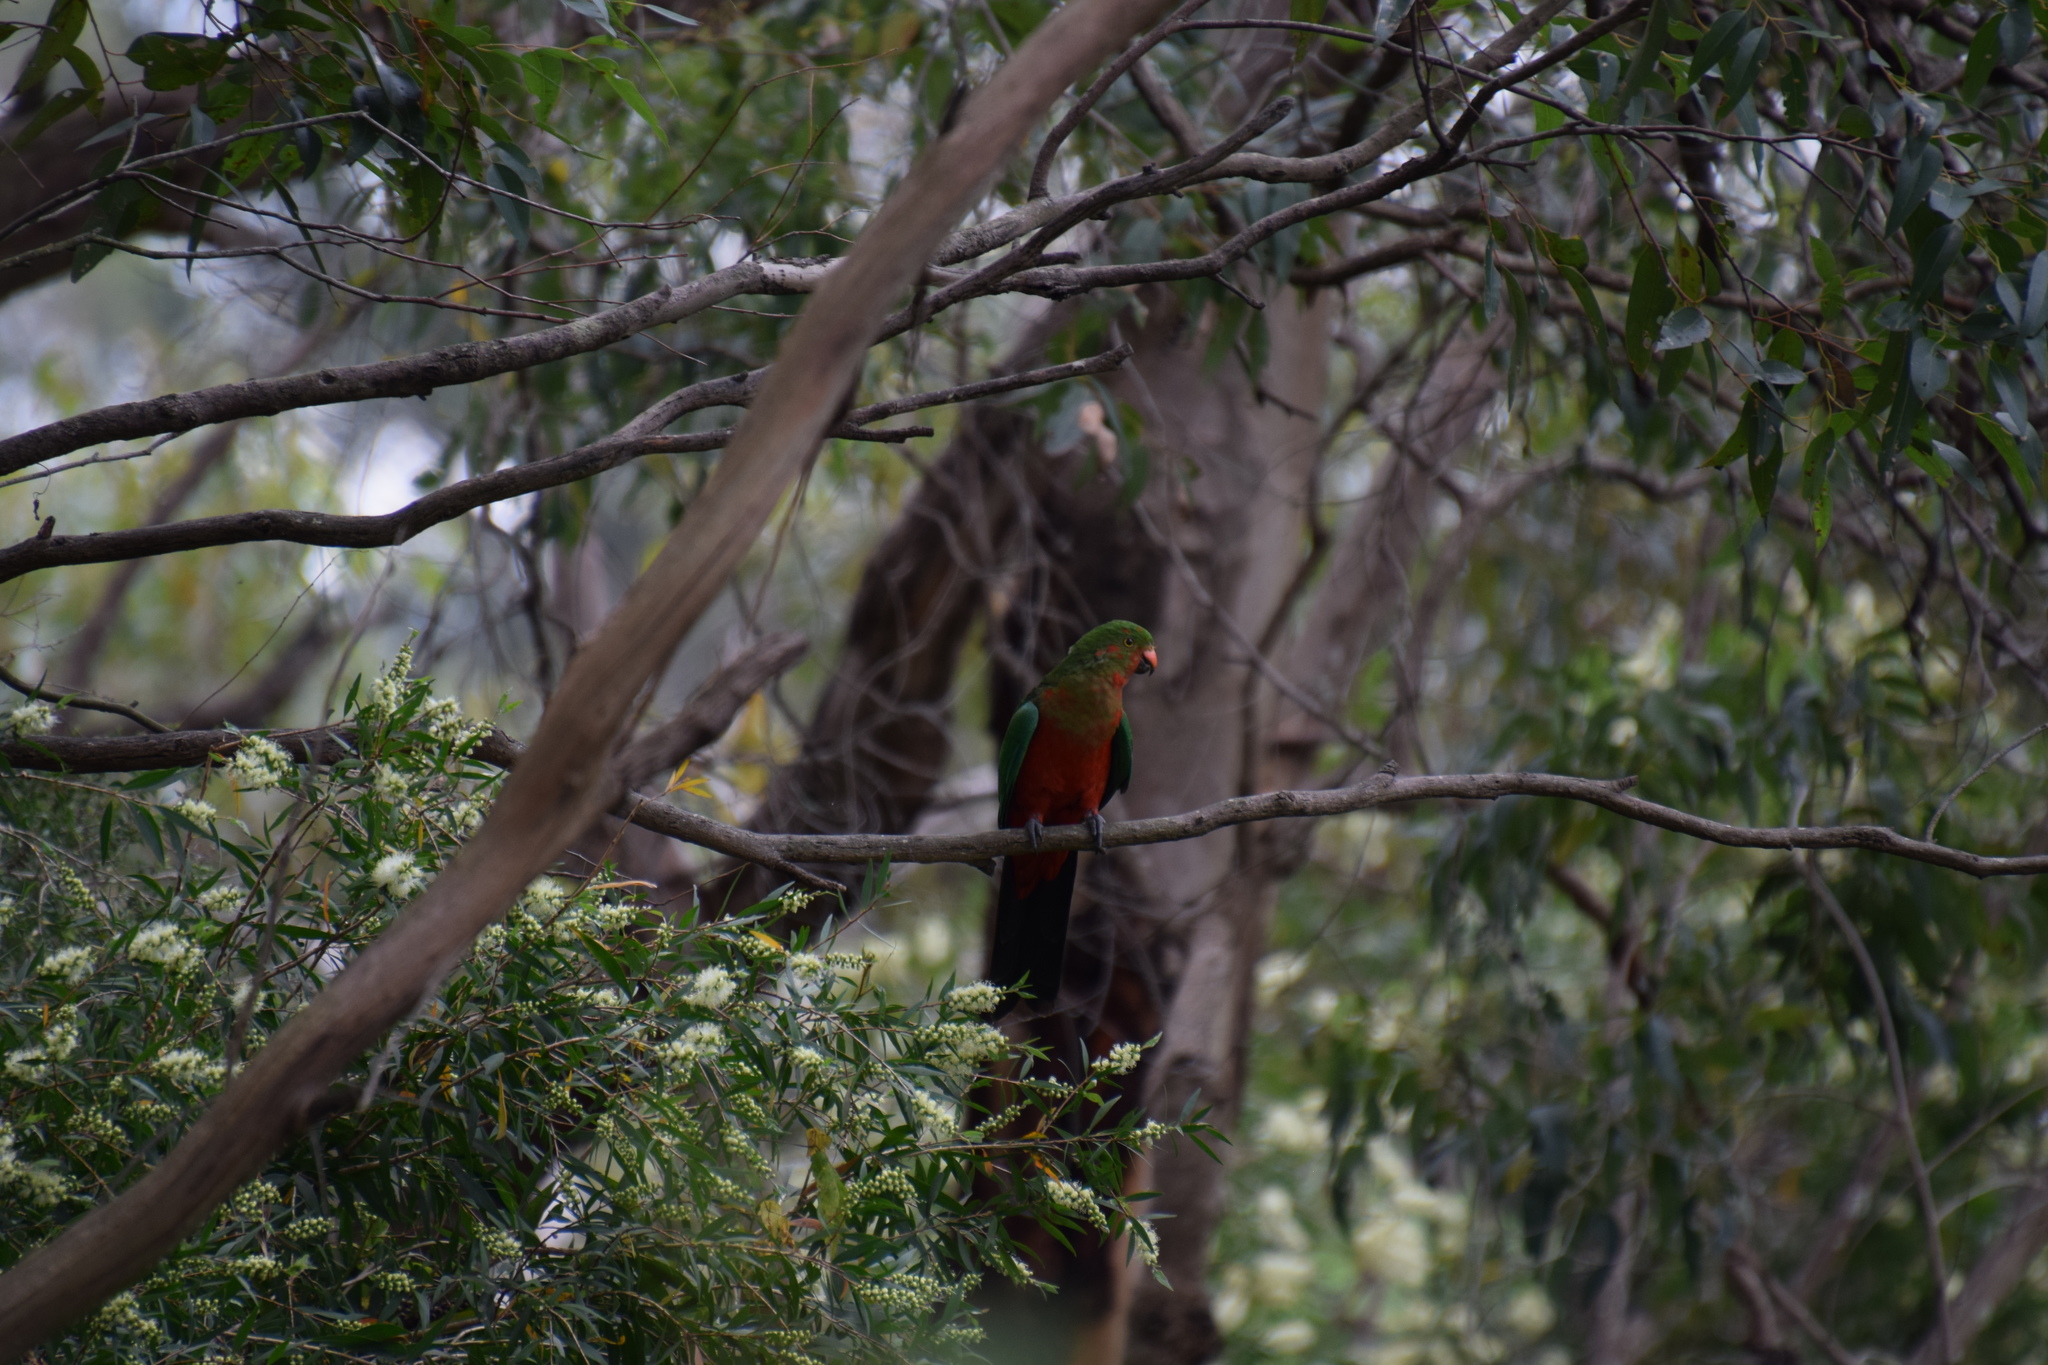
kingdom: Animalia
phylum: Chordata
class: Aves
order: Psittaciformes
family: Psittacidae
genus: Alisterus
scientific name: Alisterus scapularis
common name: Australian king parrot
